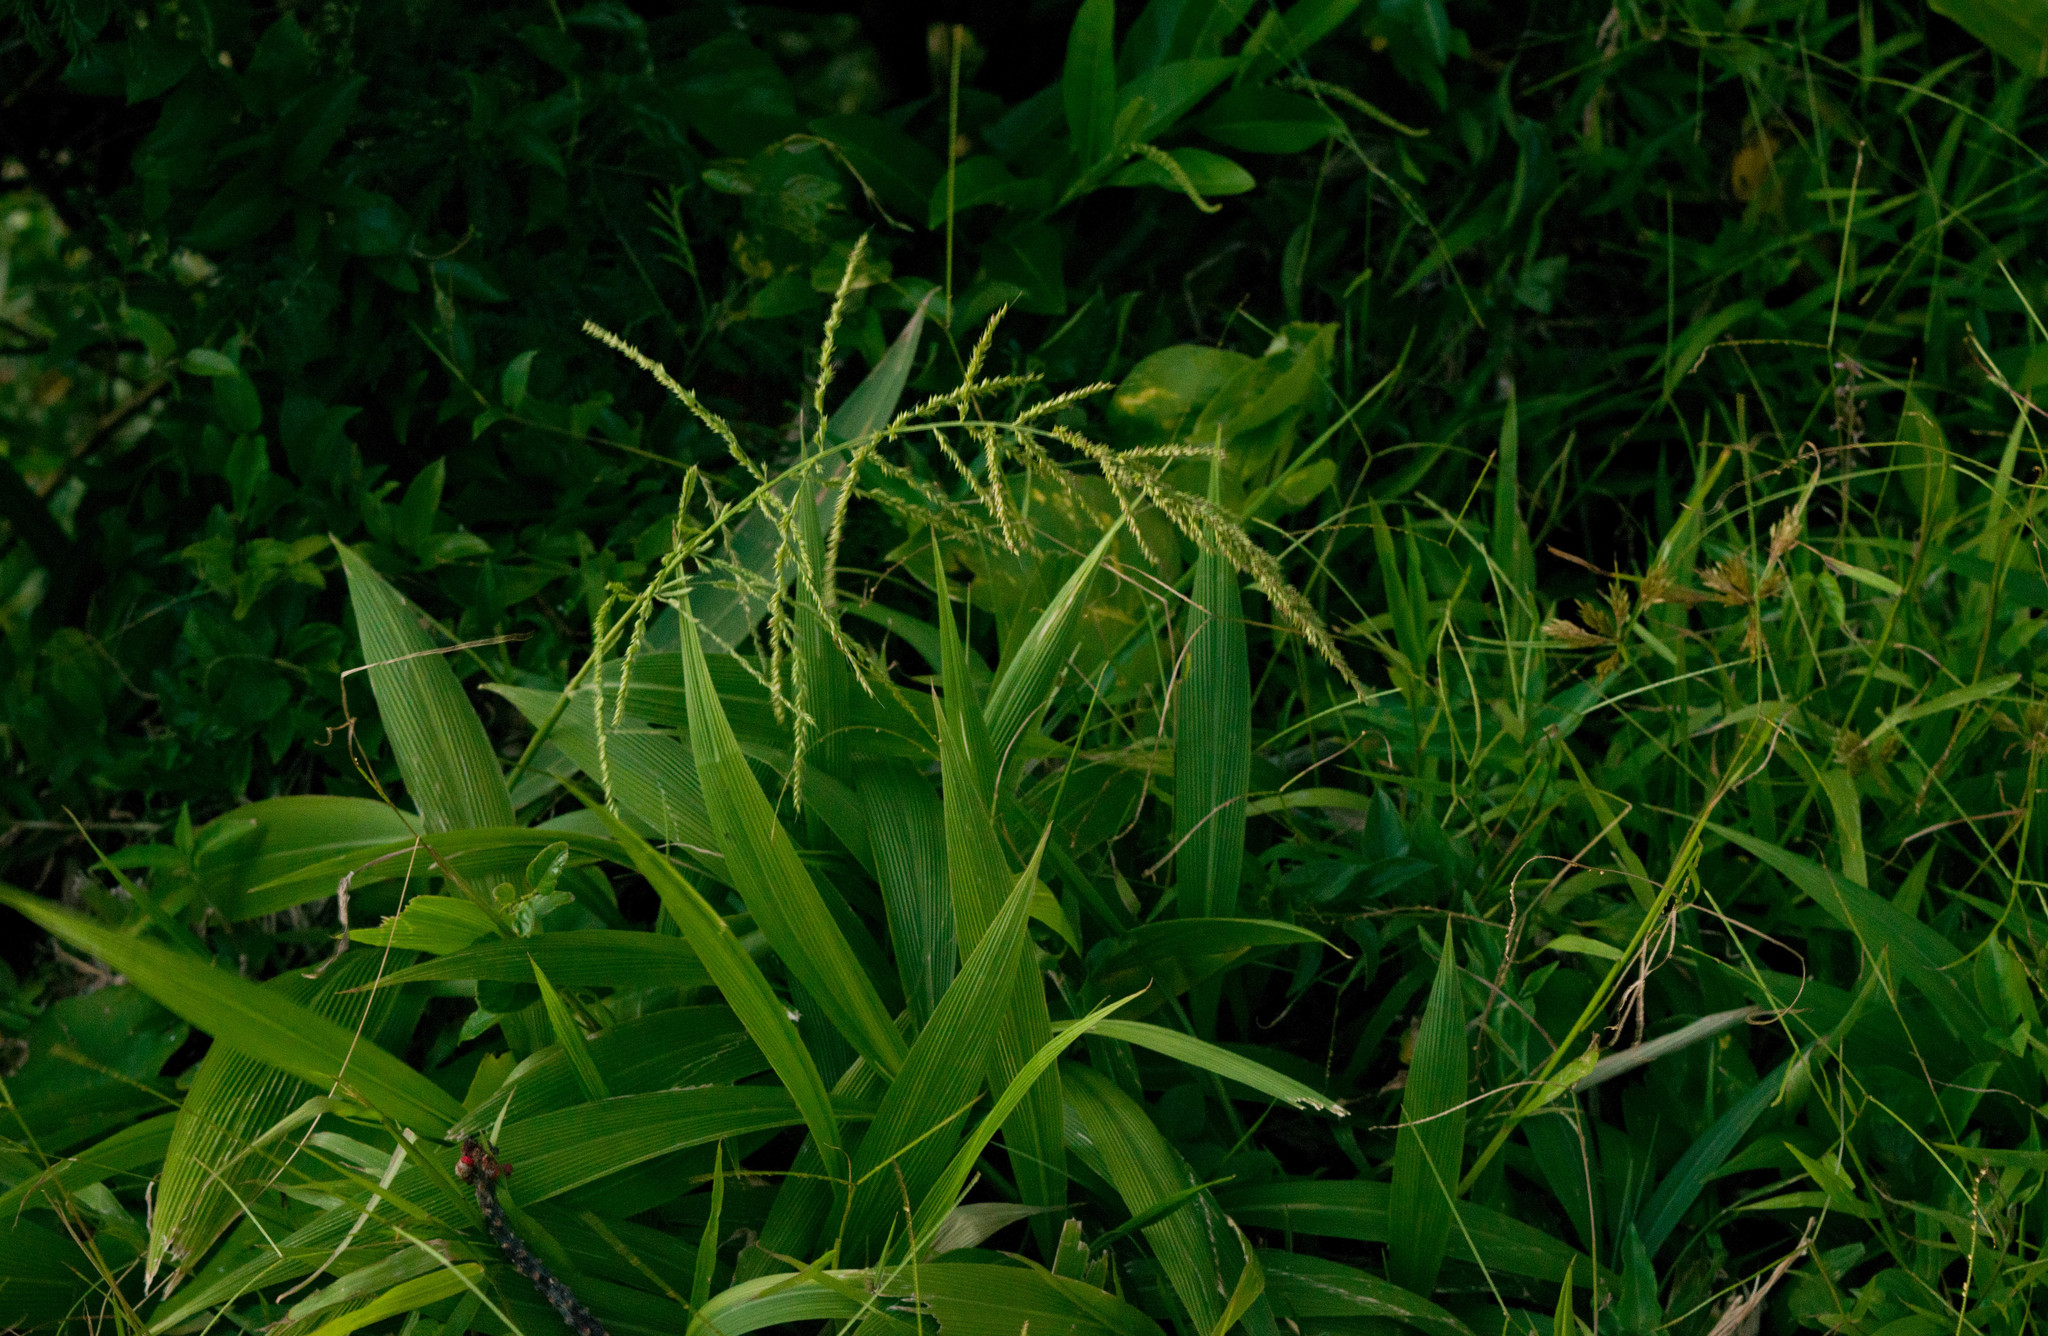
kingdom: Plantae
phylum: Tracheophyta
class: Liliopsida
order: Poales
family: Poaceae
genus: Setaria
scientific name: Setaria palmifolia
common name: Broadleaved bristlegrass
